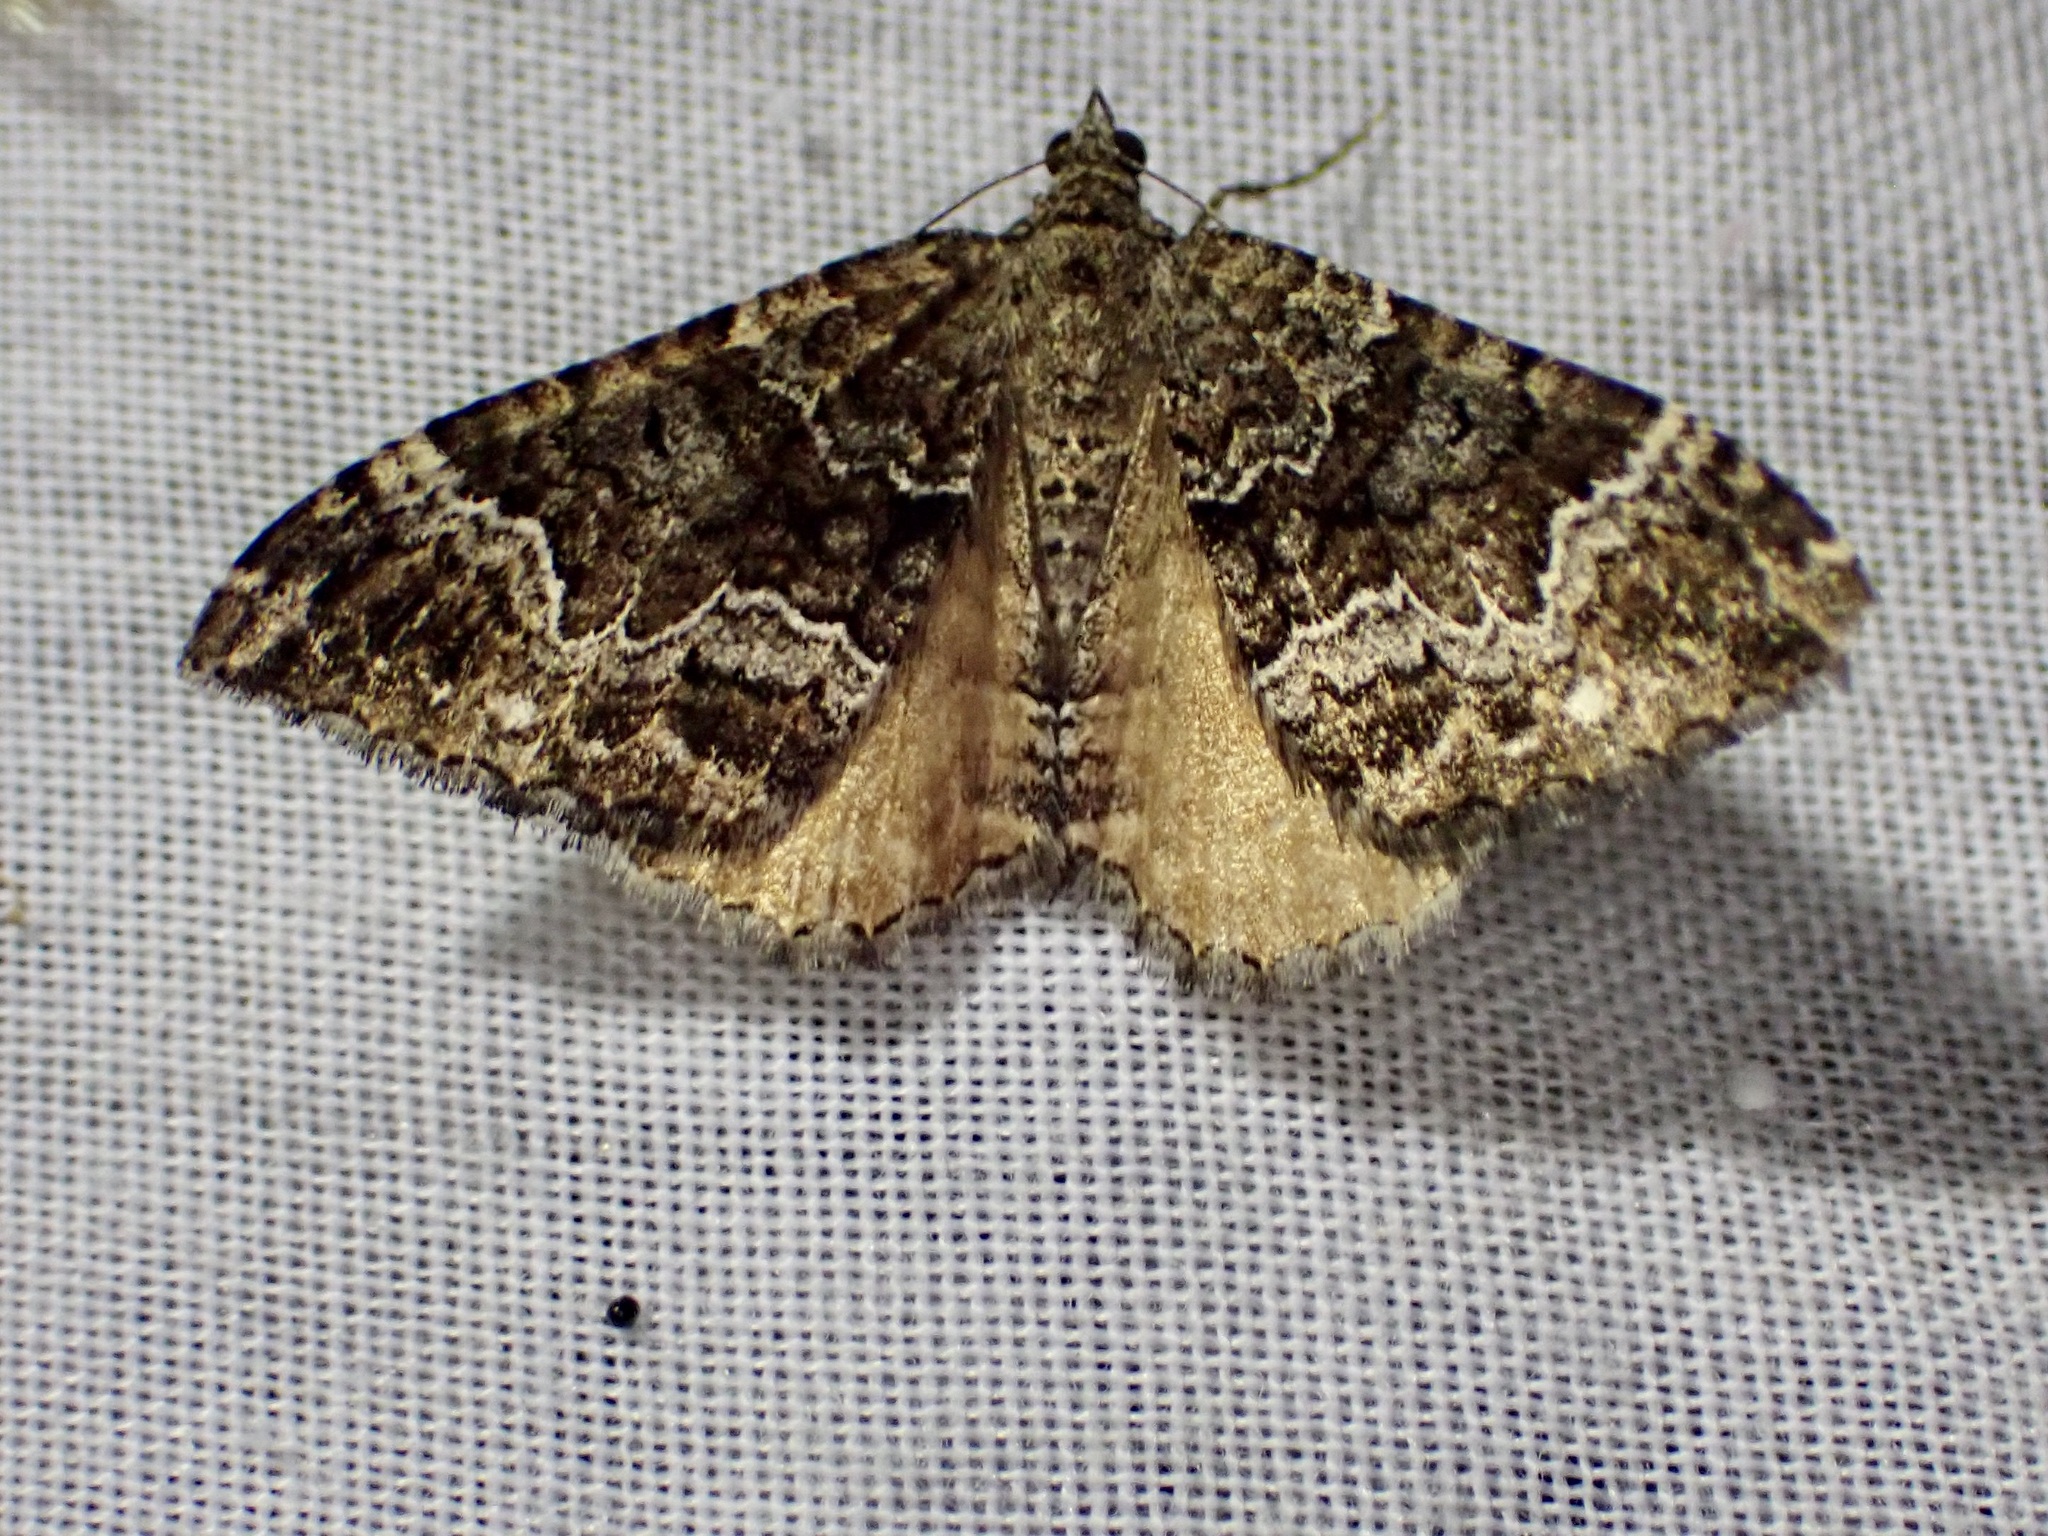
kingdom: Animalia
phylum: Arthropoda
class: Insecta
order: Lepidoptera
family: Geometridae
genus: Hydriomena
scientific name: Hydriomena deltoidata
